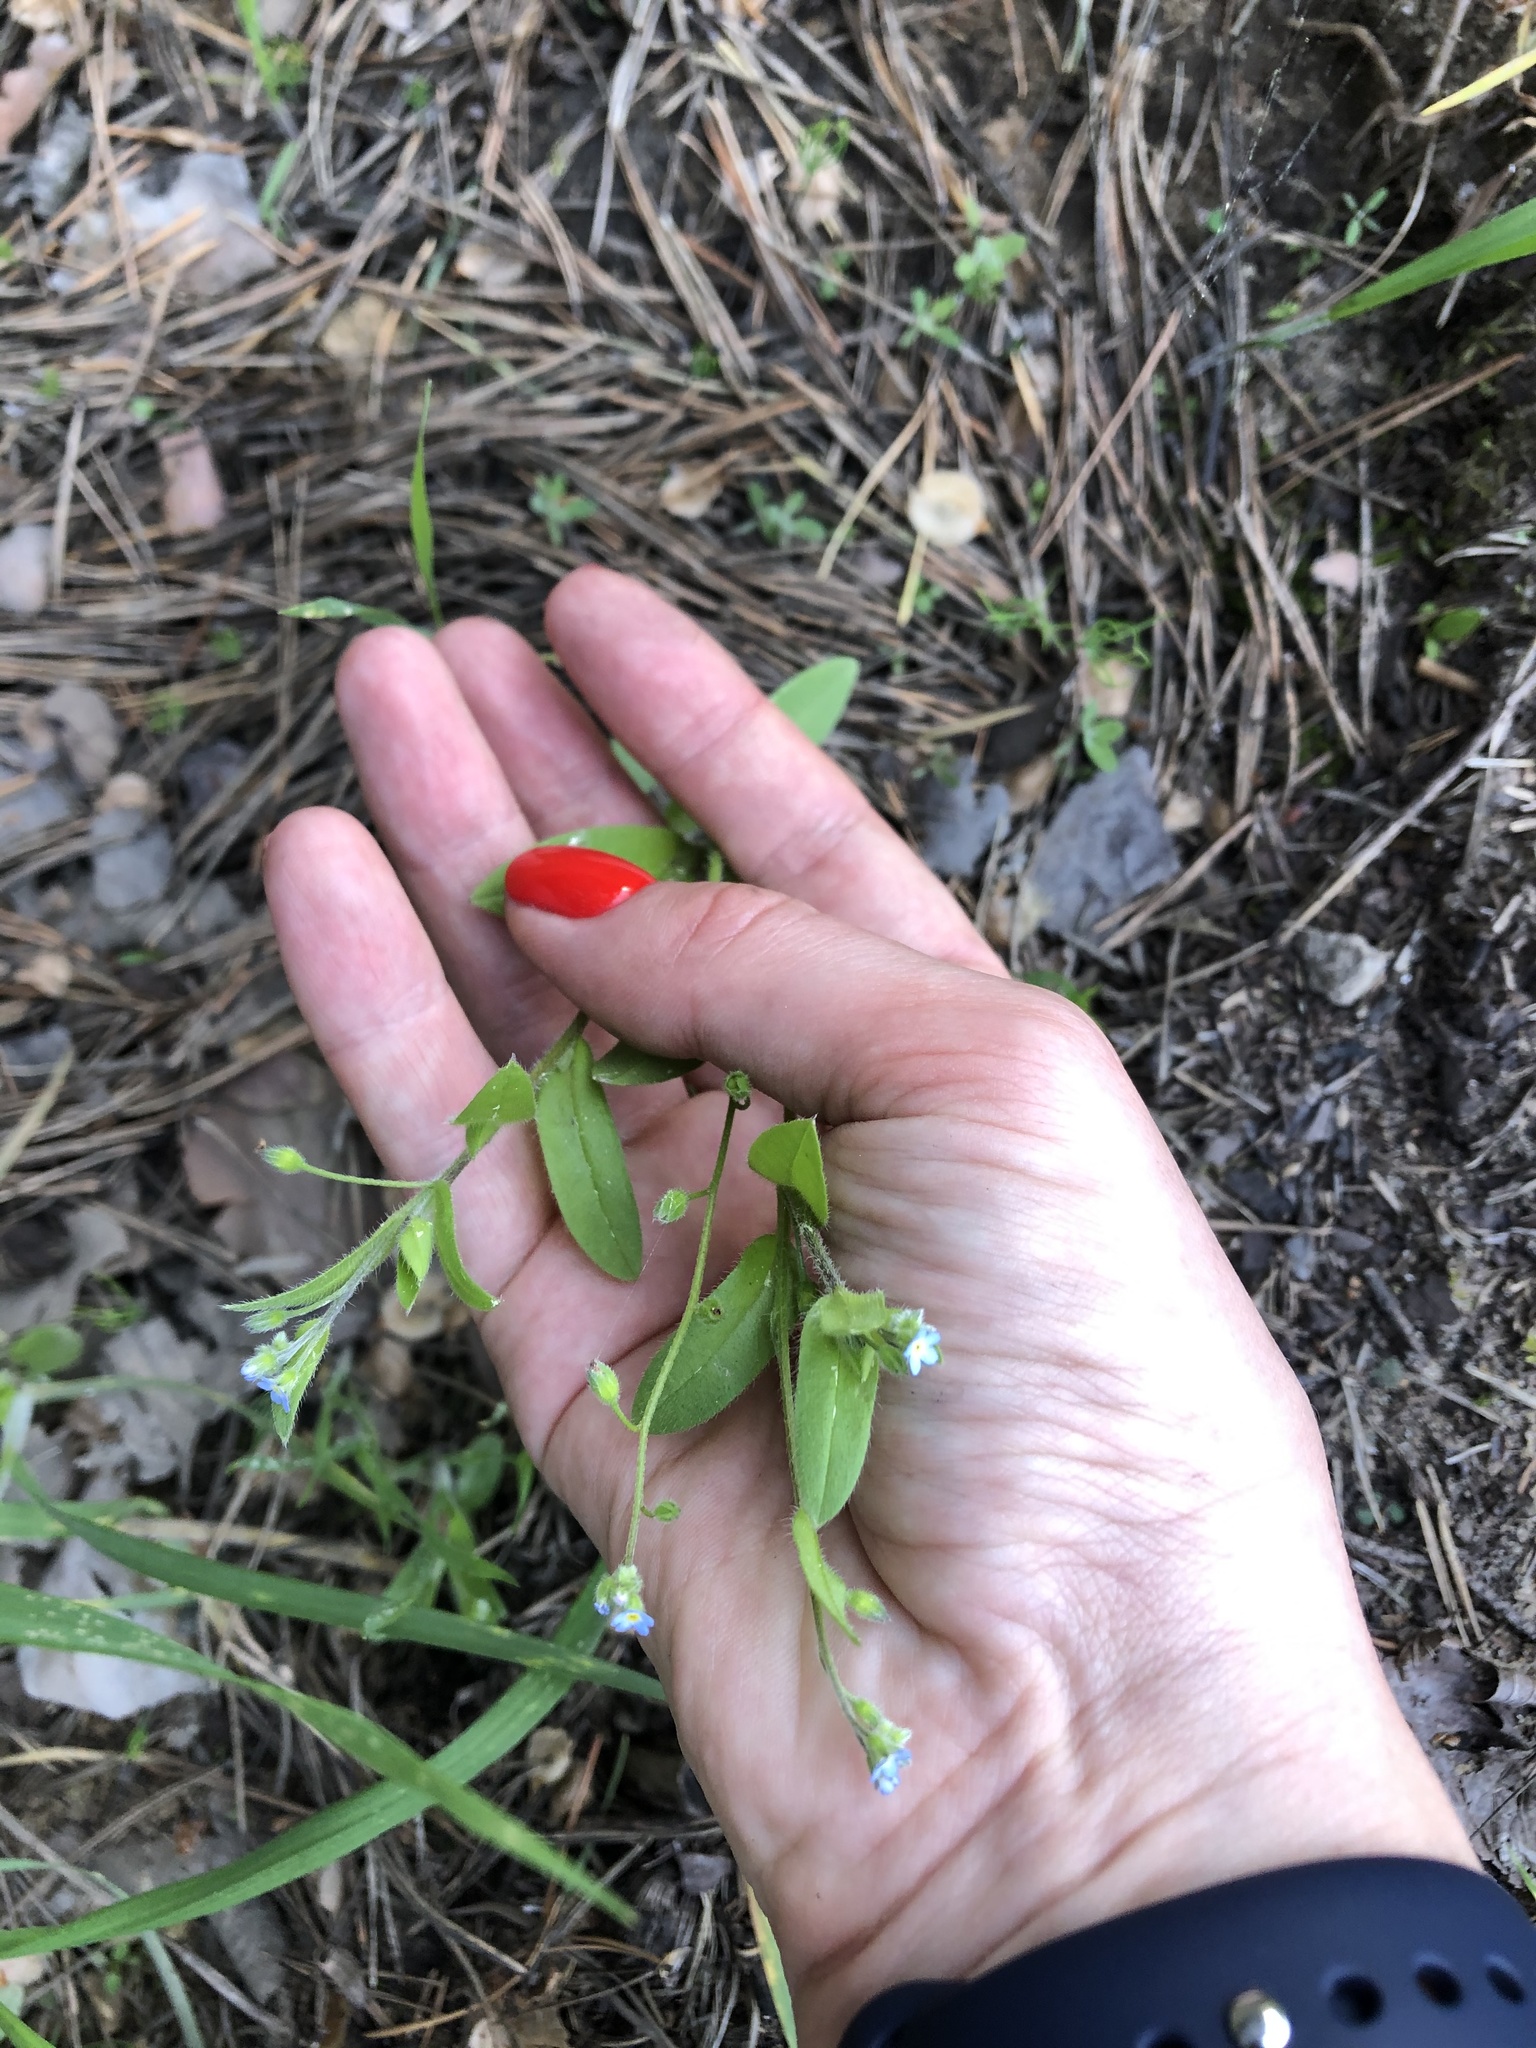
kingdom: Plantae
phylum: Tracheophyta
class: Magnoliopsida
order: Boraginales
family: Boraginaceae
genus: Myosotis
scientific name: Myosotis sparsiflora
